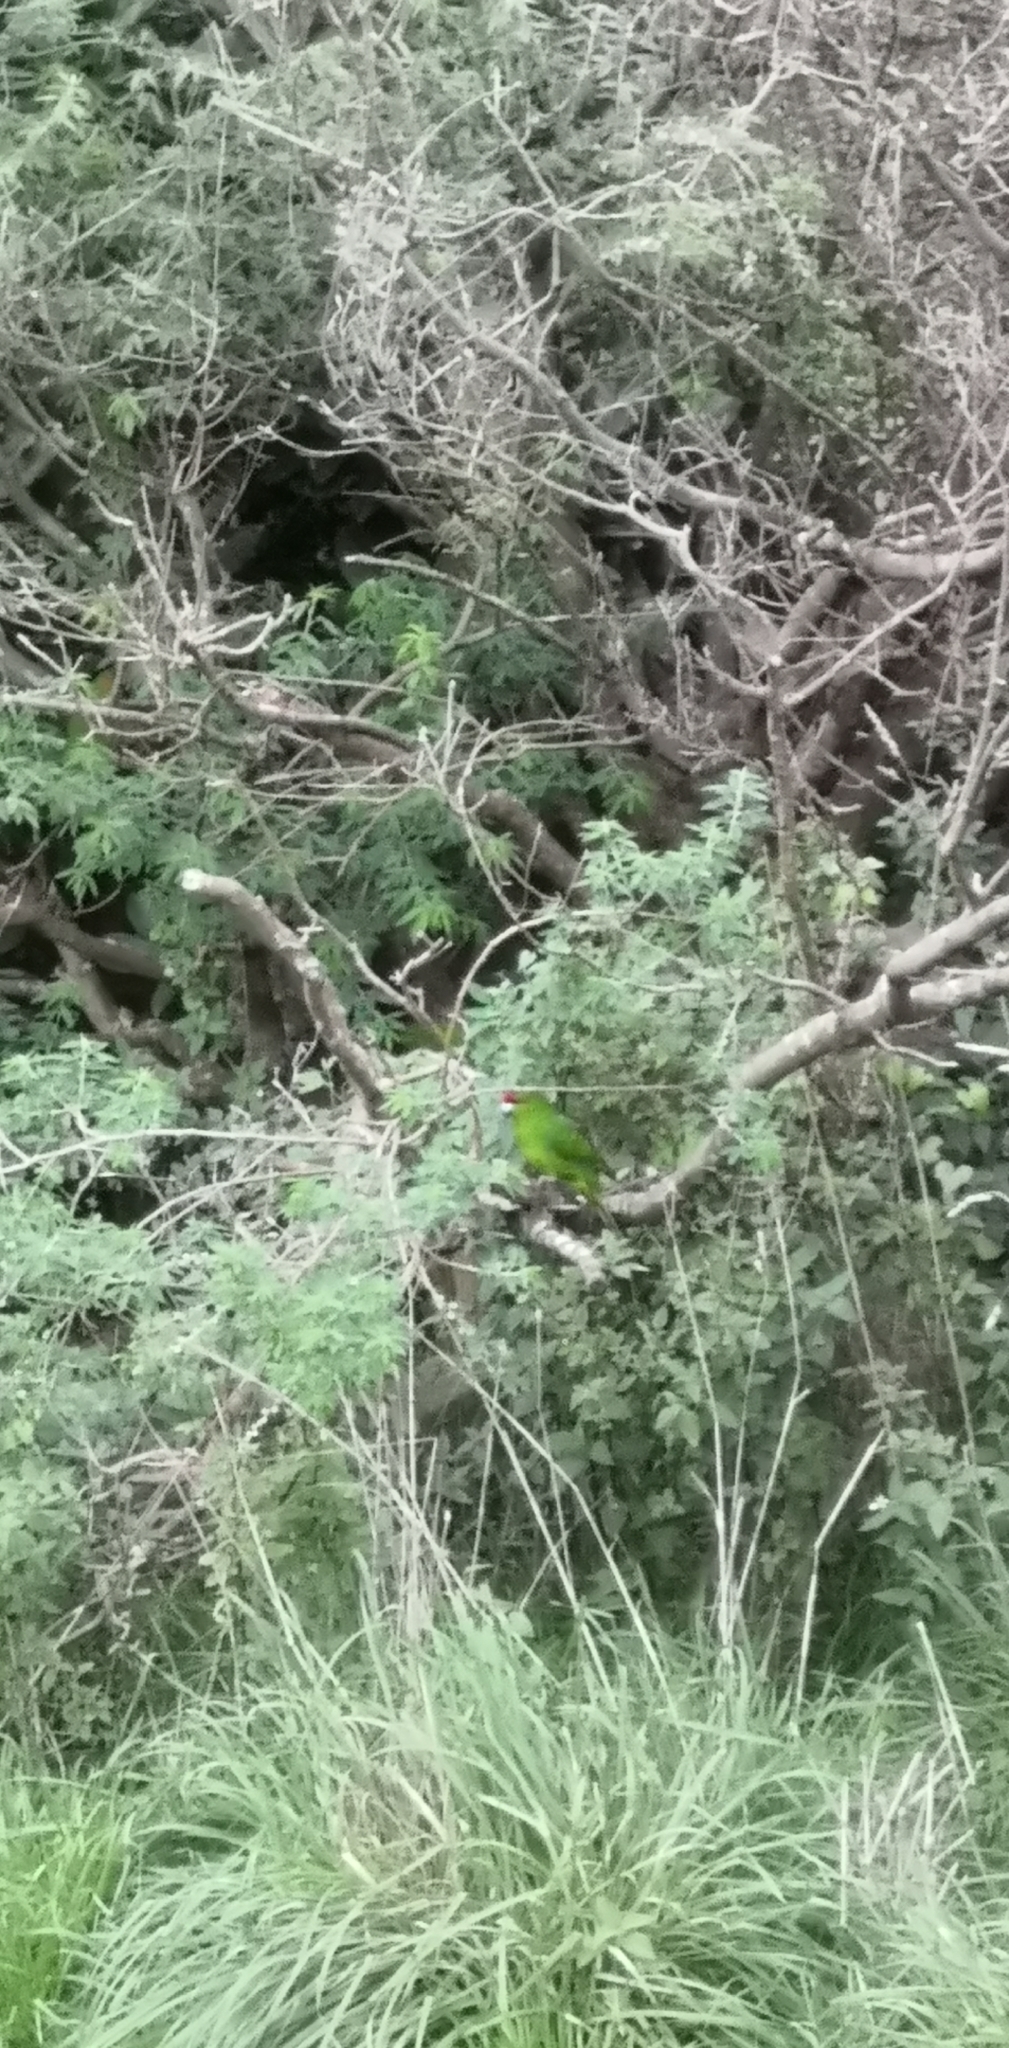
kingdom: Animalia
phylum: Chordata
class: Aves
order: Psittaciformes
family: Psittacidae
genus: Cyanoramphus
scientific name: Cyanoramphus novaezelandiae
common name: Red-fronted parakeet
